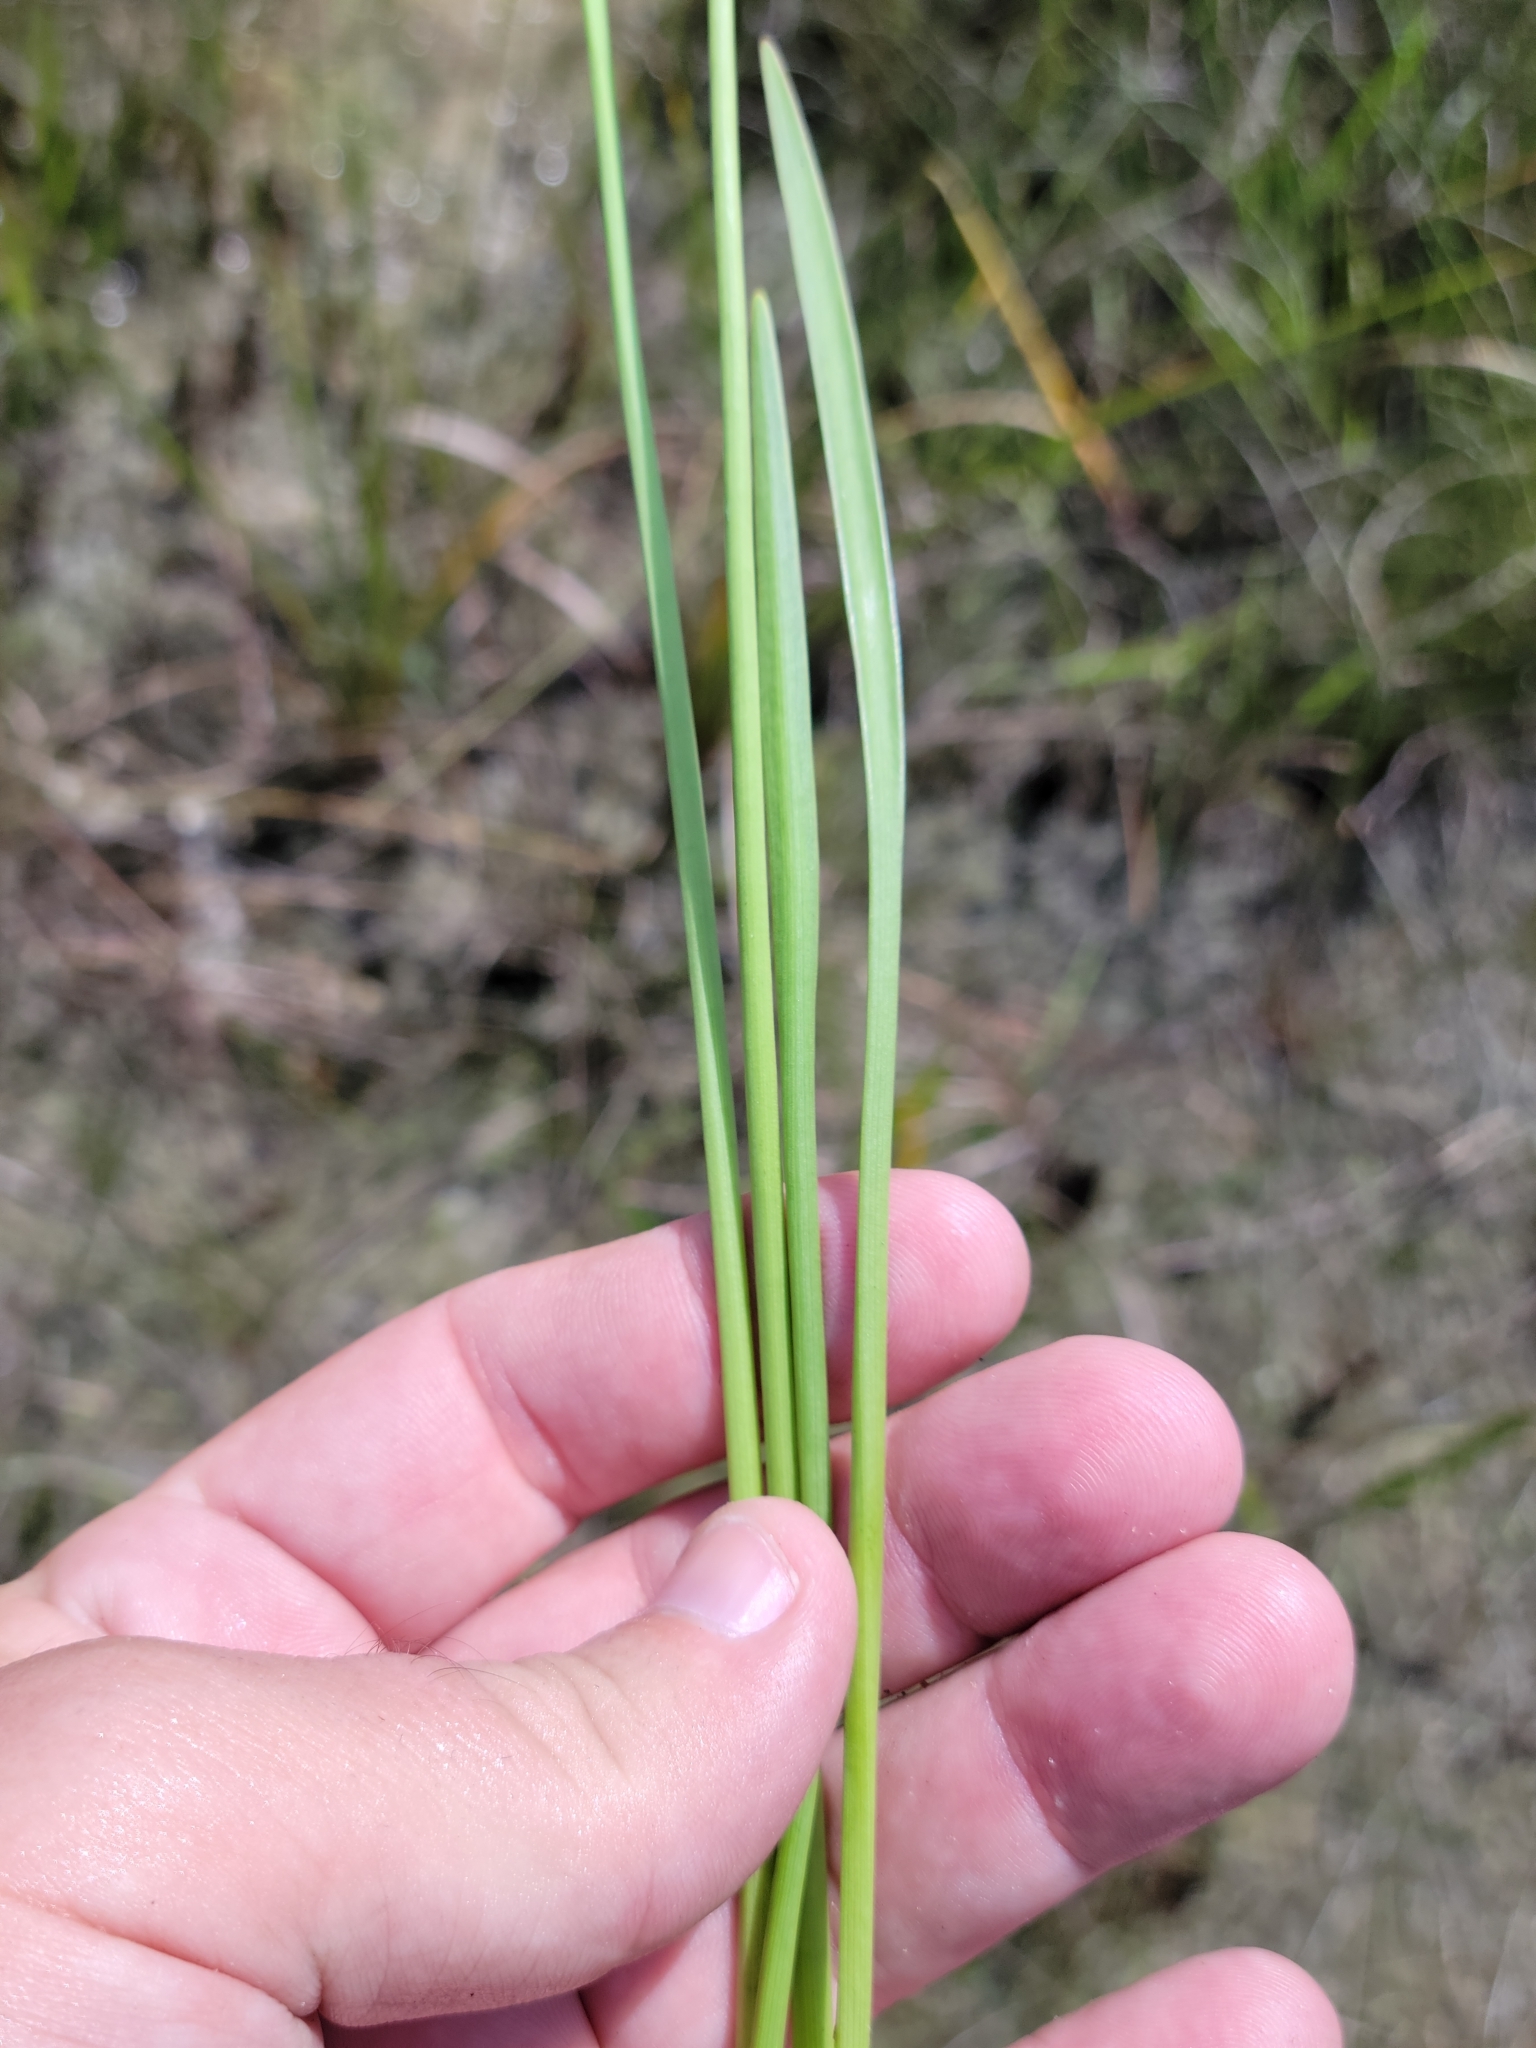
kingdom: Plantae
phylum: Tracheophyta
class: Liliopsida
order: Alismatales
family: Alismataceae
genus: Sagittaria
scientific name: Sagittaria lancifolia
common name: Lance-leaf arrowhead
